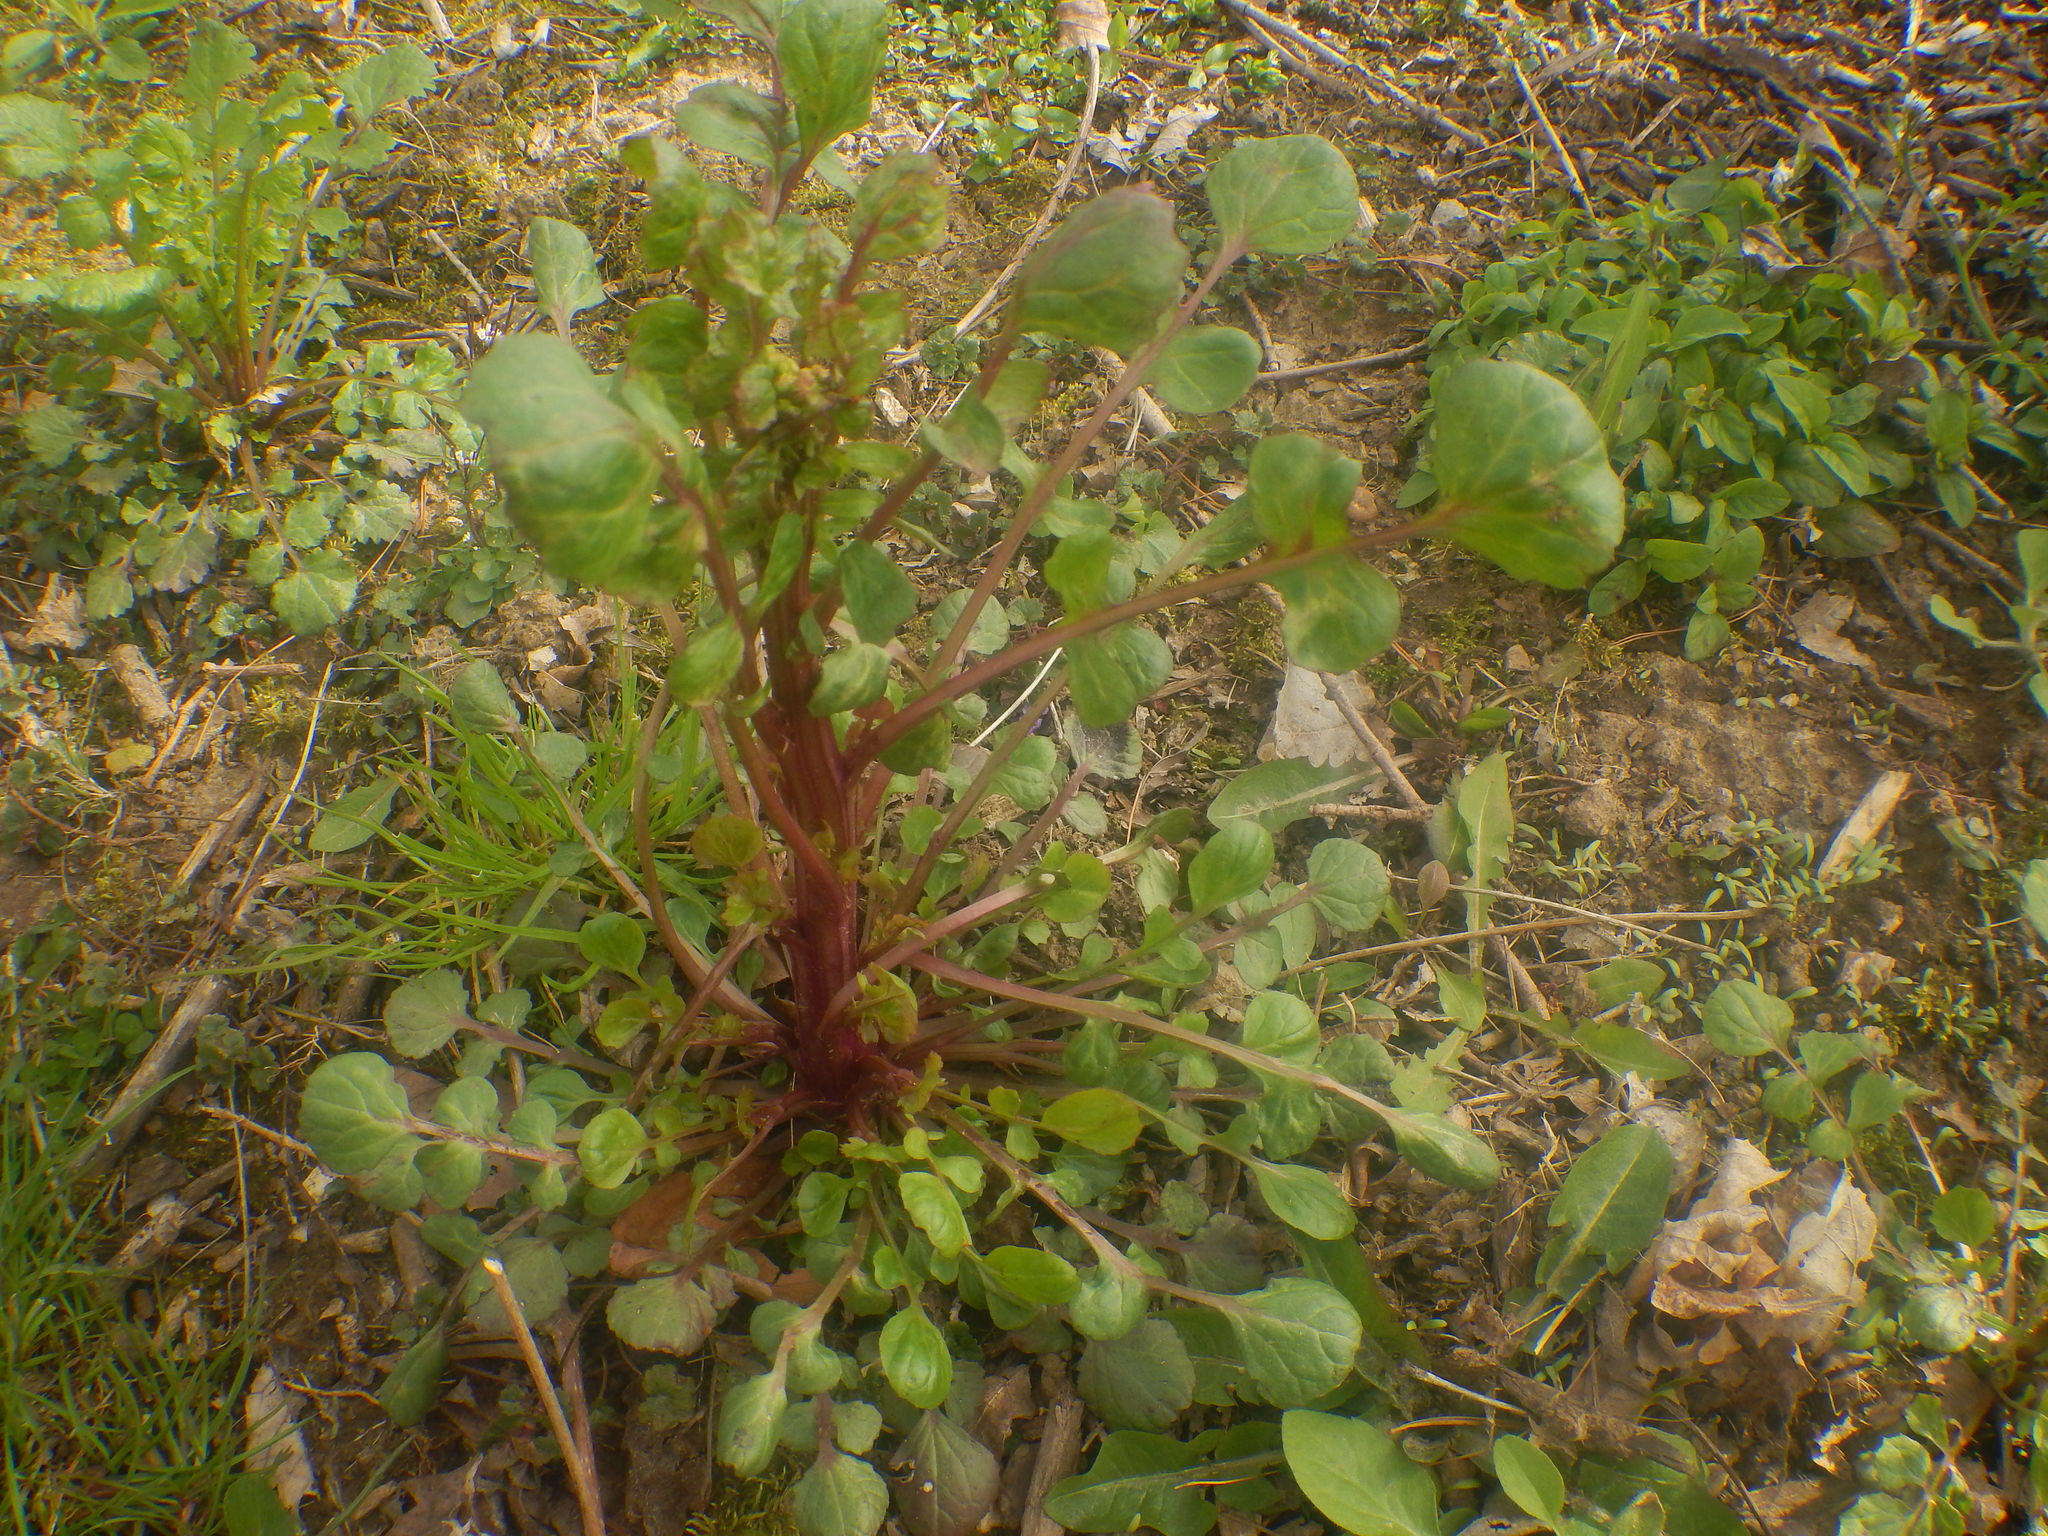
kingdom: Plantae
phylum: Tracheophyta
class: Magnoliopsida
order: Asterales
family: Asteraceae
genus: Packera
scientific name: Packera glabella
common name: Butterweed
